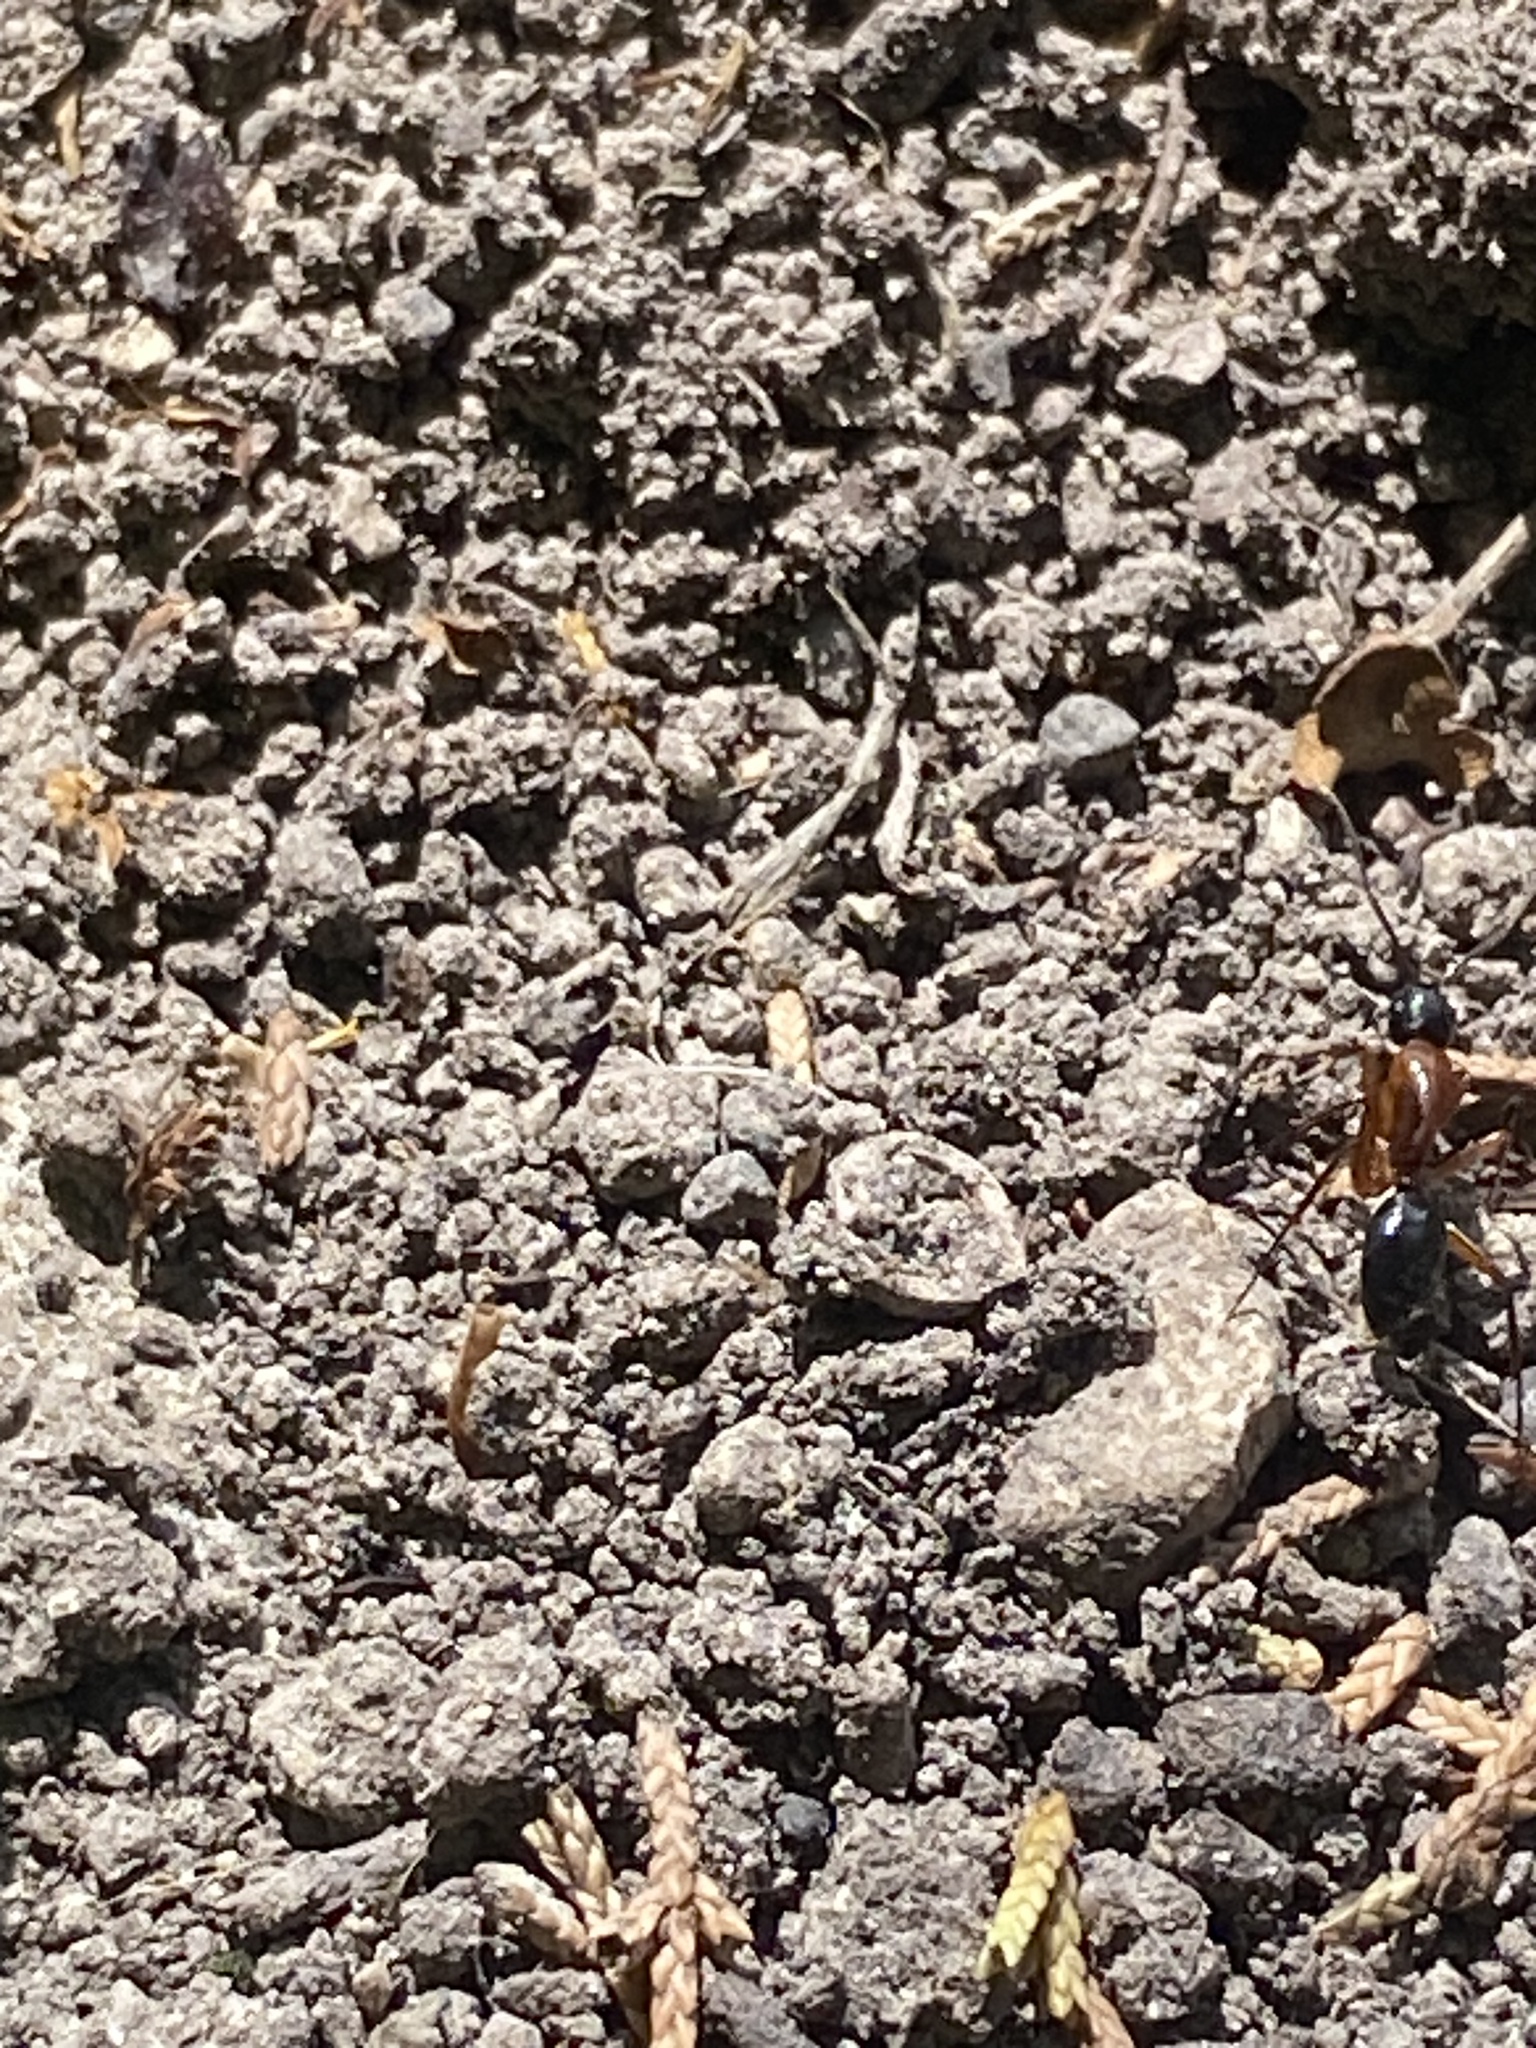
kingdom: Animalia
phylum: Arthropoda
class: Insecta
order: Hymenoptera
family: Formicidae
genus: Camponotus
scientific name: Camponotus texanus
